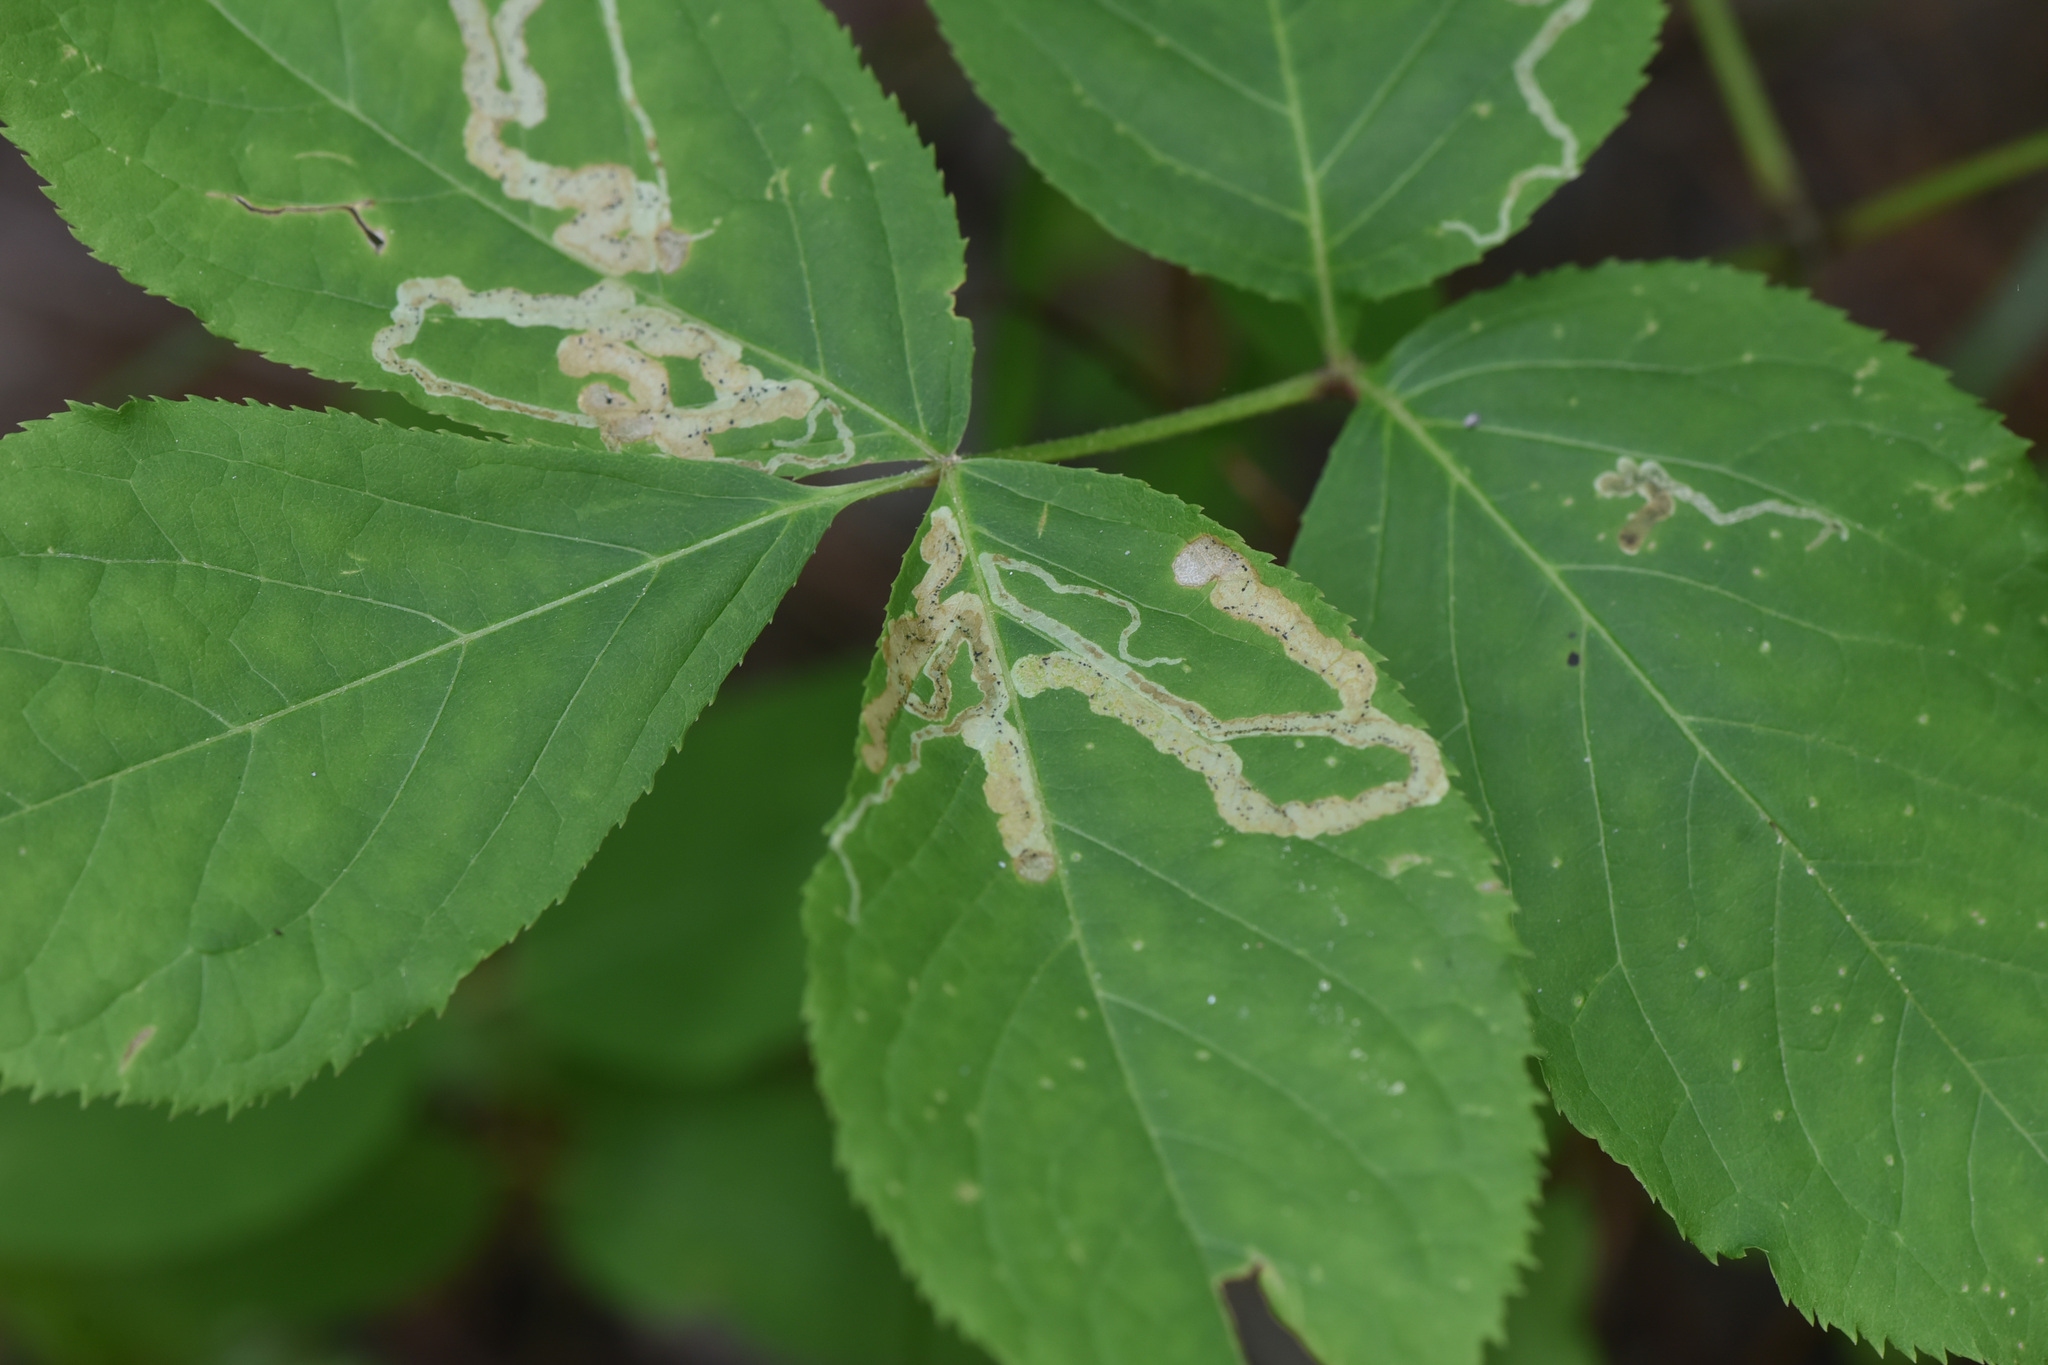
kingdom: Plantae
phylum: Tracheophyta
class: Magnoliopsida
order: Apiales
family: Araliaceae
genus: Aralia
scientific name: Aralia nudicaulis
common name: Wild sarsaparilla
